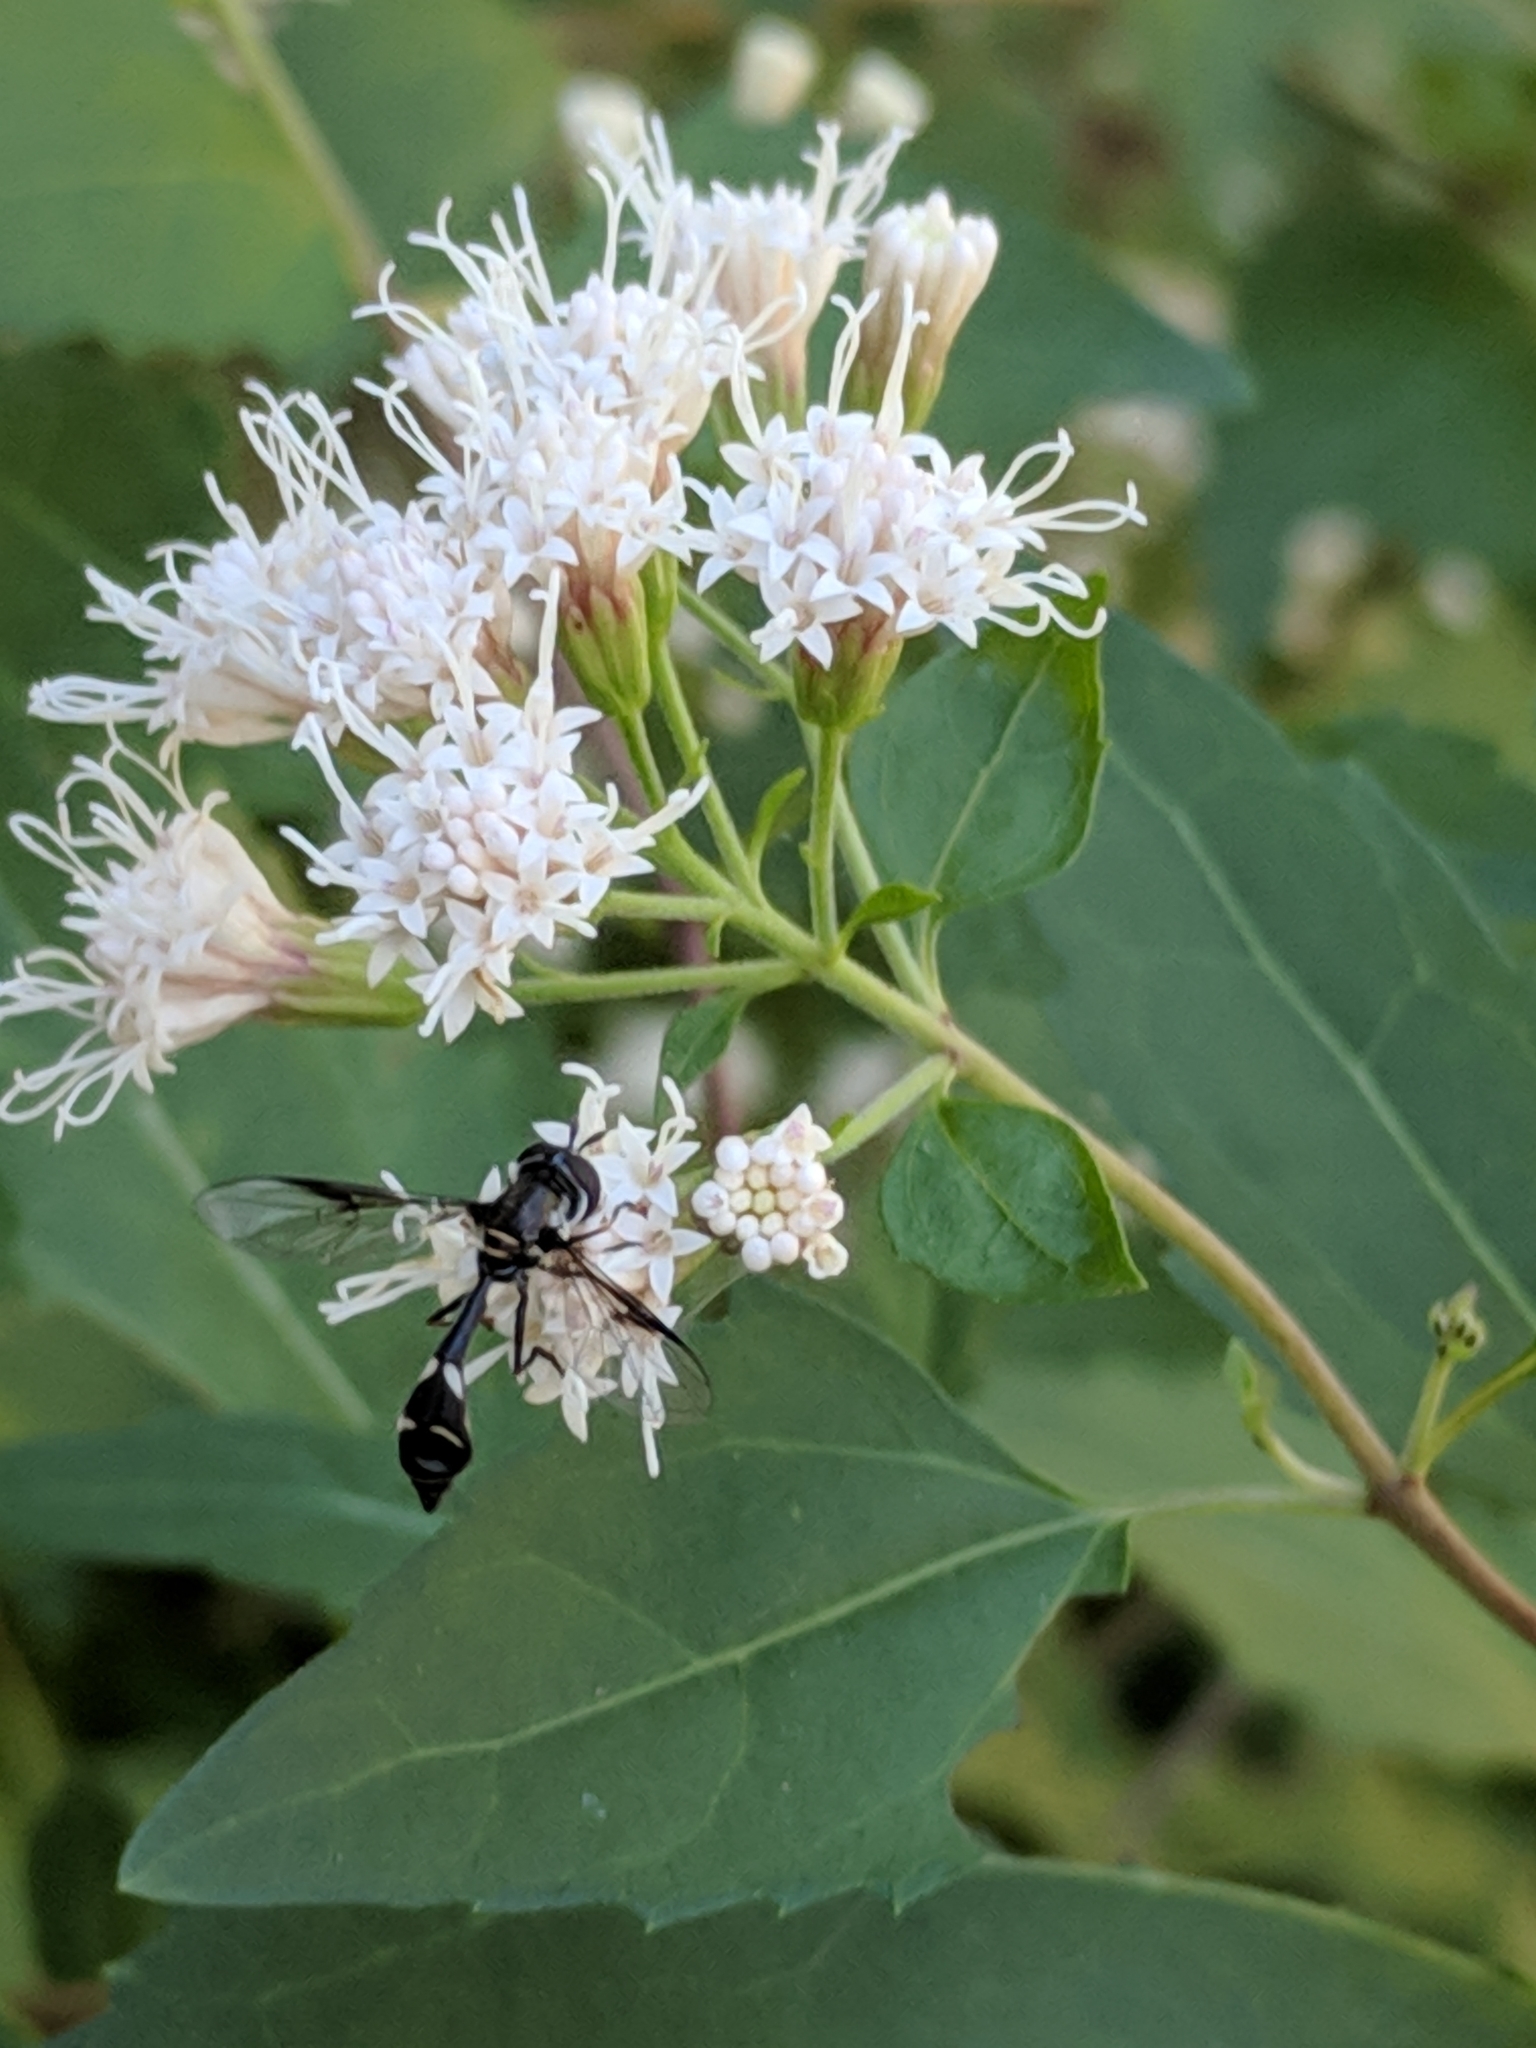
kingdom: Animalia
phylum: Arthropoda
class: Insecta
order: Diptera
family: Syrphidae
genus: Dioprosopa
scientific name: Dioprosopa clavatus
